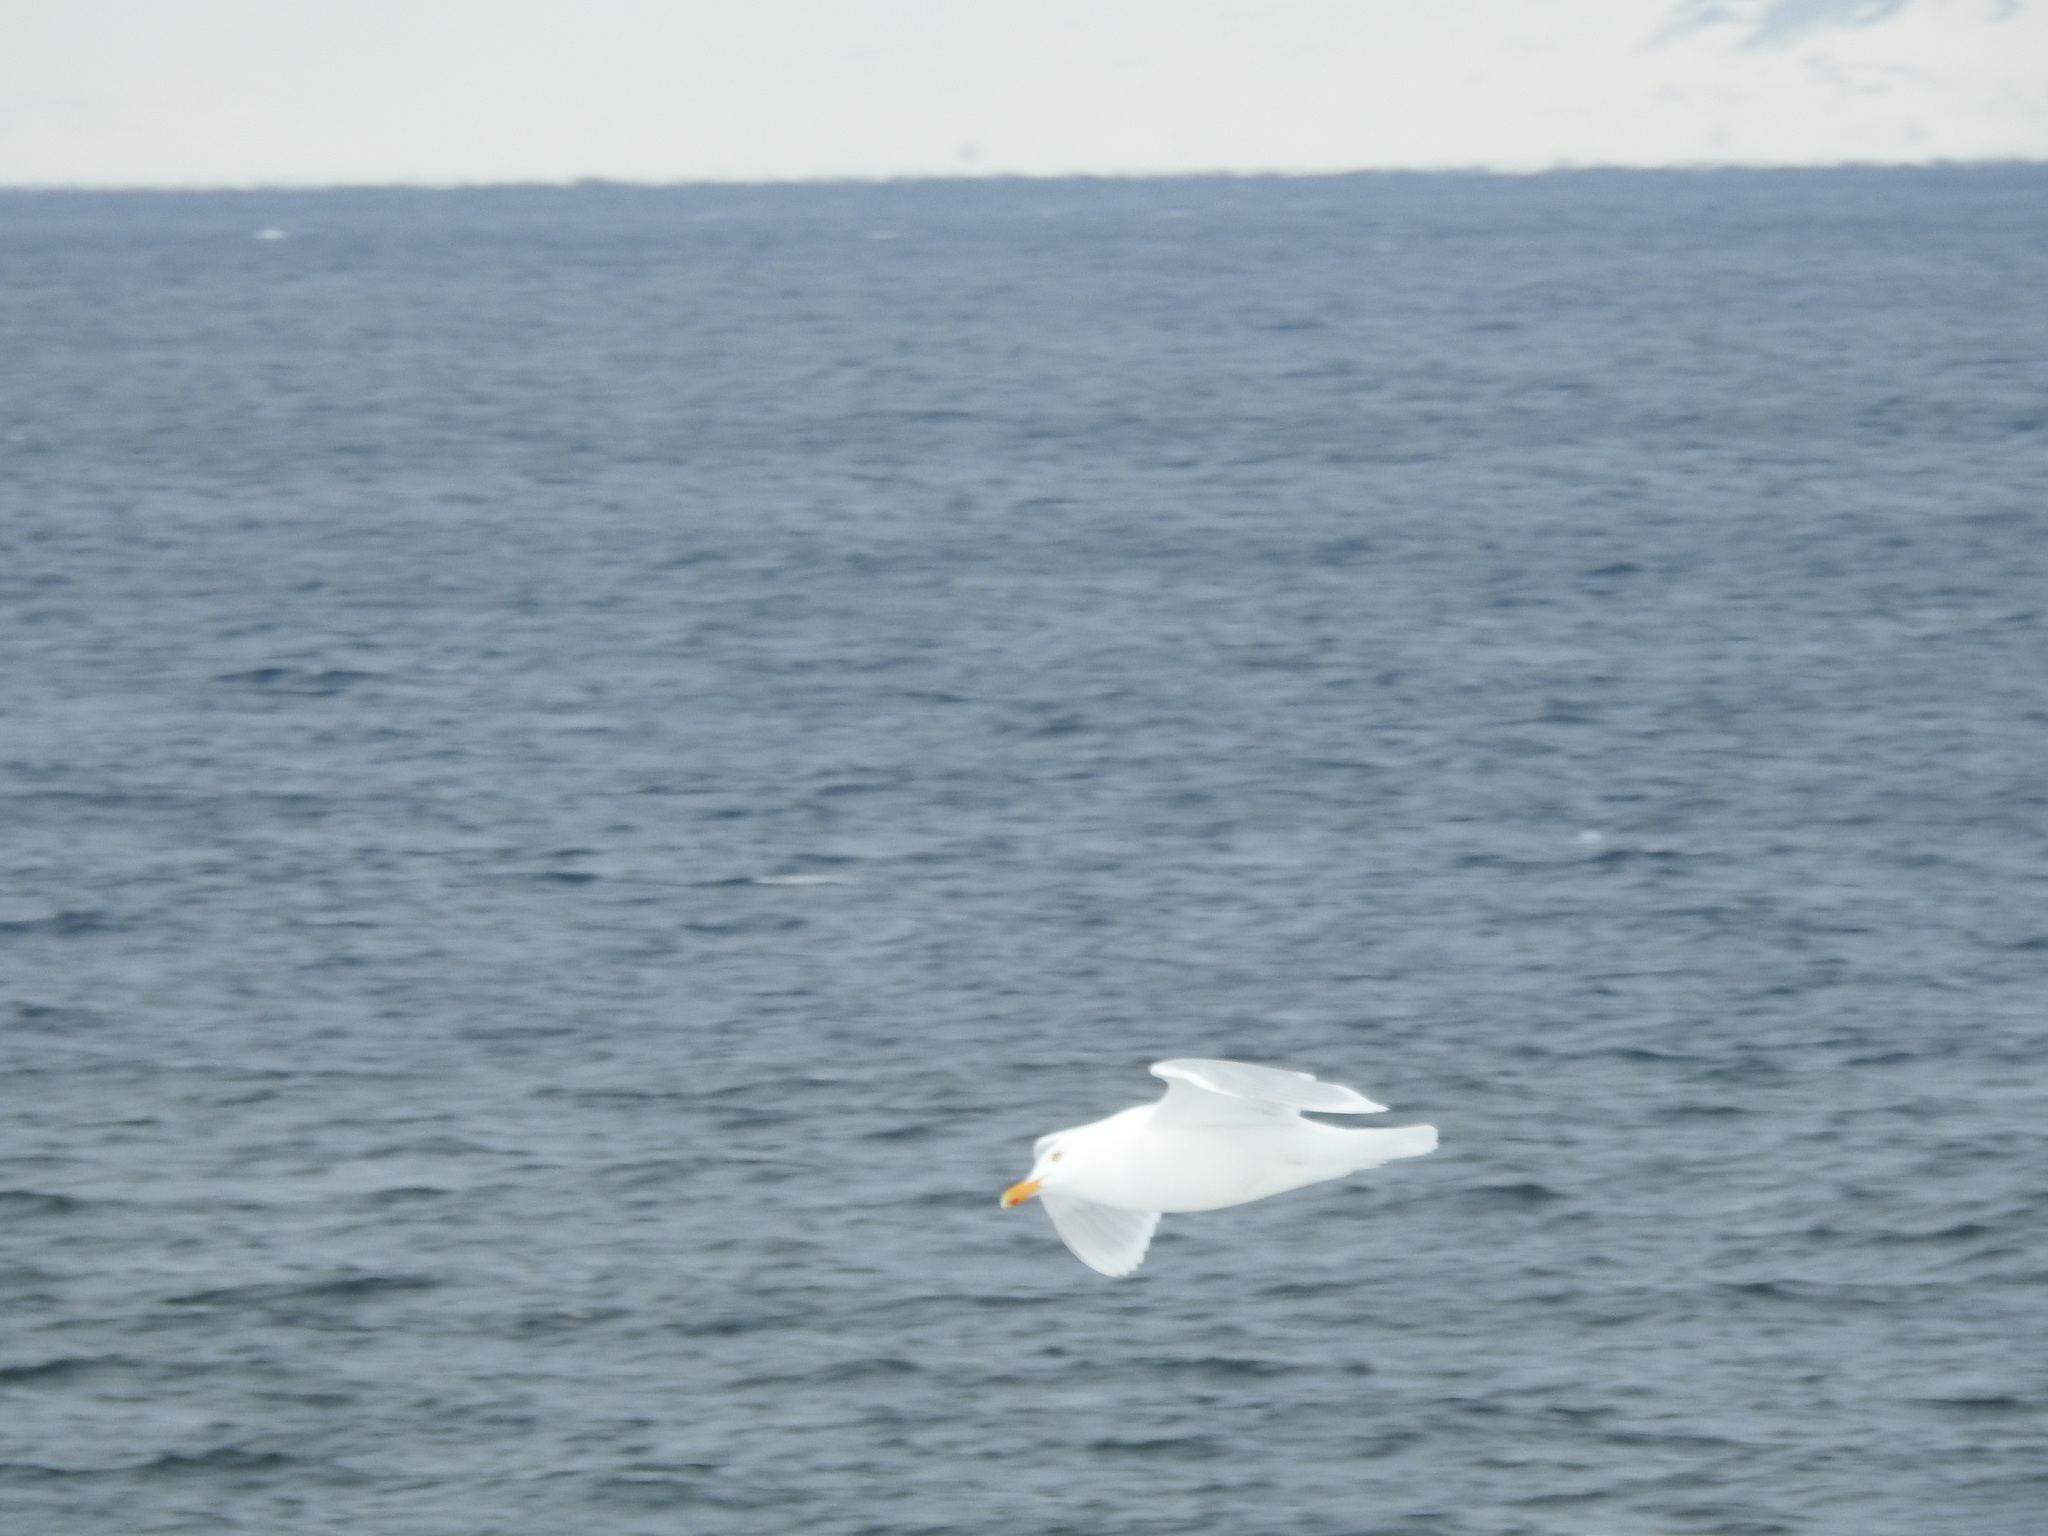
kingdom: Animalia
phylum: Chordata
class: Aves
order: Charadriiformes
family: Laridae
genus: Larus
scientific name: Larus hyperboreus
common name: Glaucous gull
